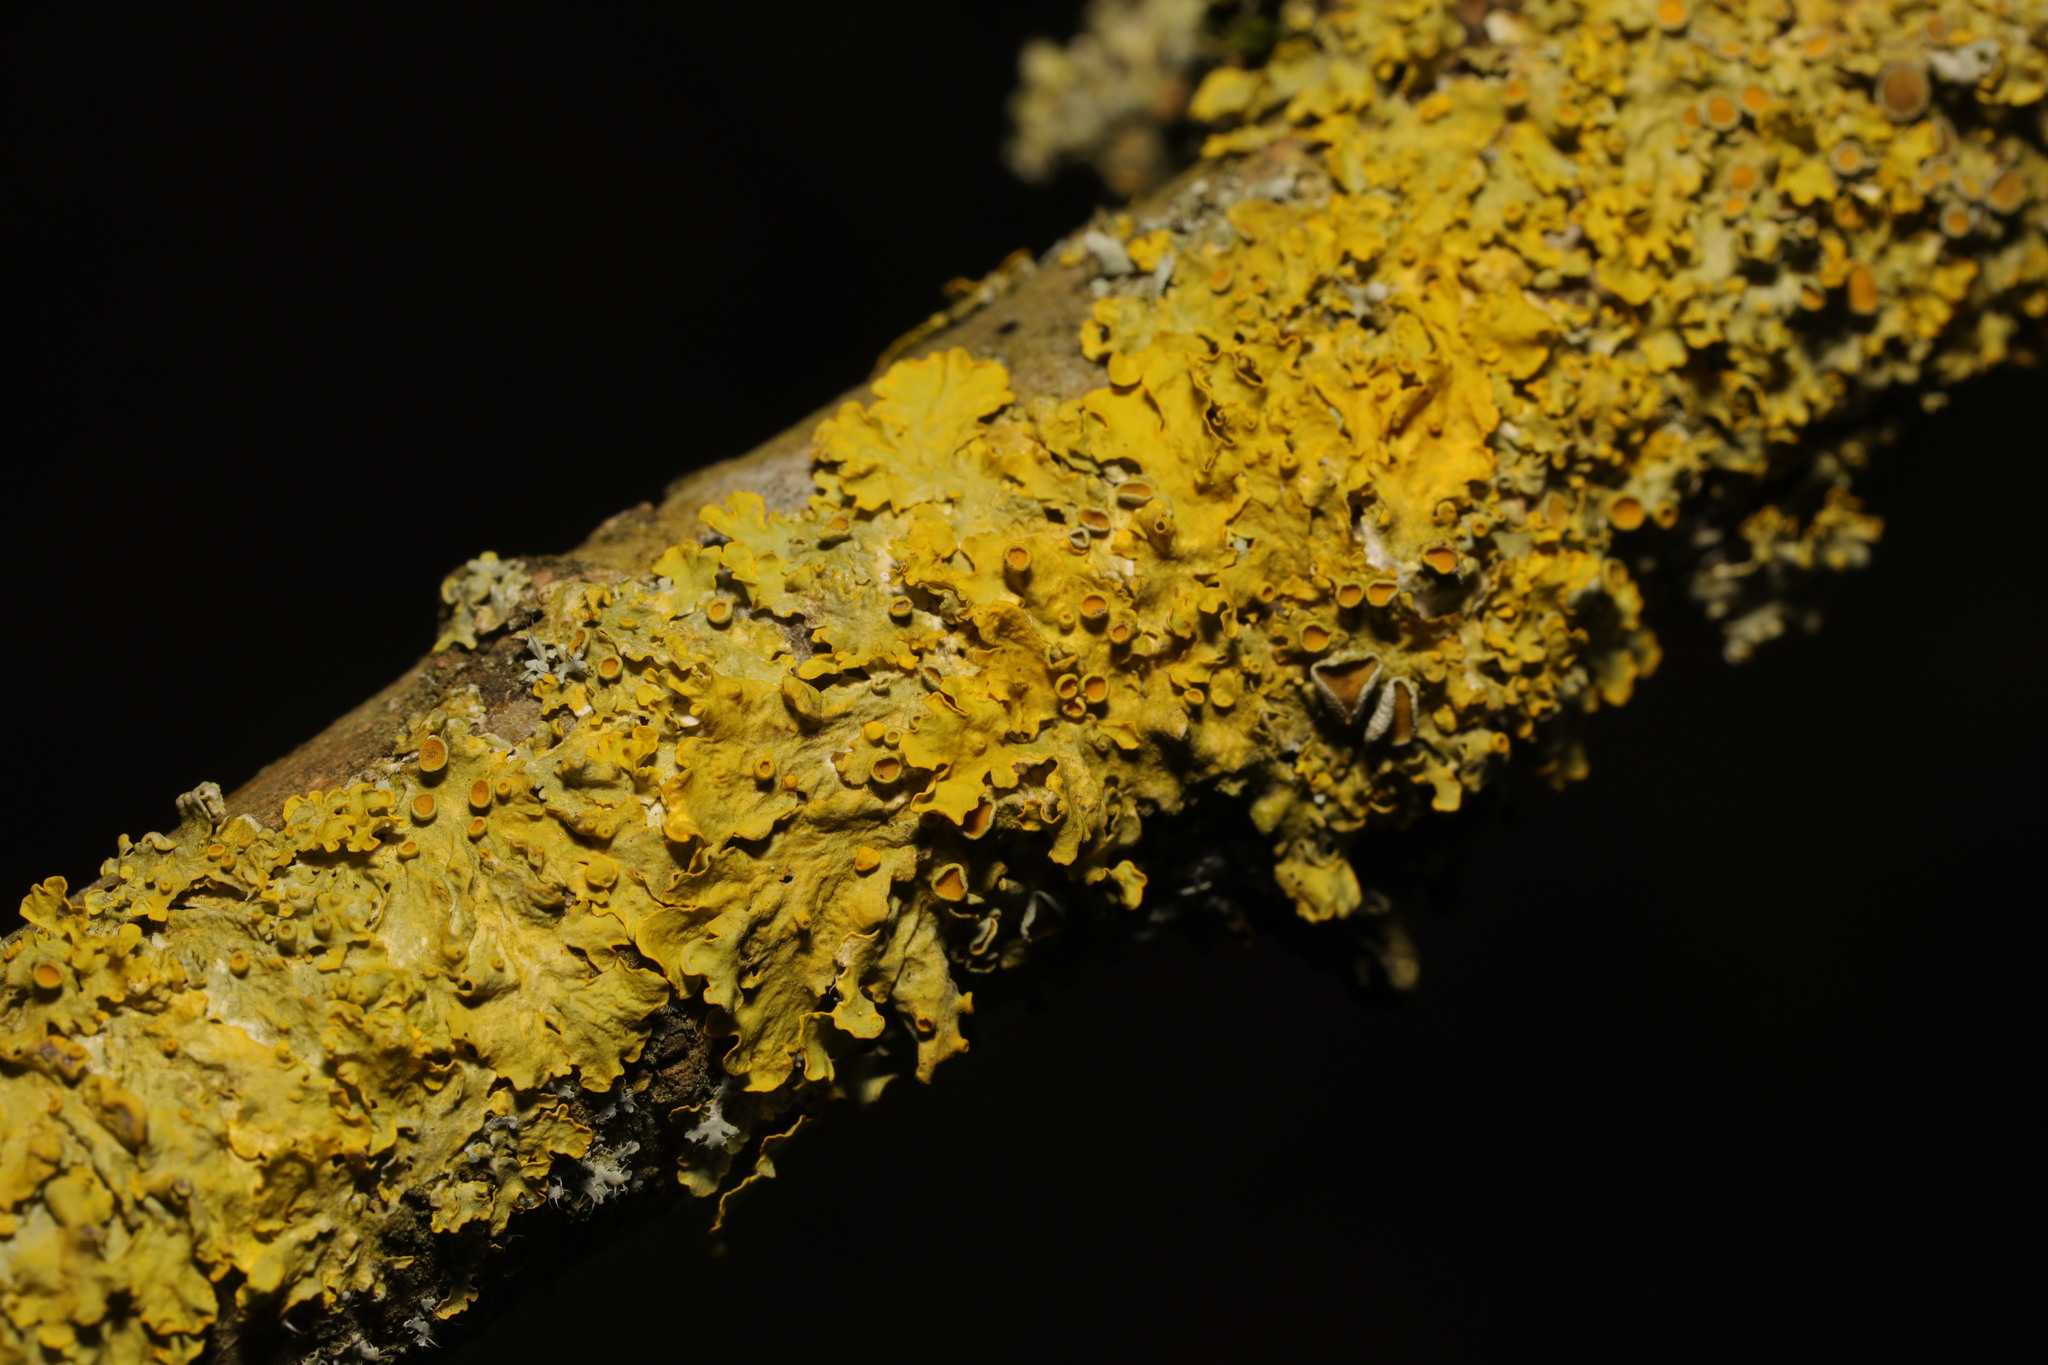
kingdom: Fungi
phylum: Ascomycota
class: Lecanoromycetes
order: Teloschistales
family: Teloschistaceae
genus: Xanthoria
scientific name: Xanthoria parietina
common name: Common orange lichen
